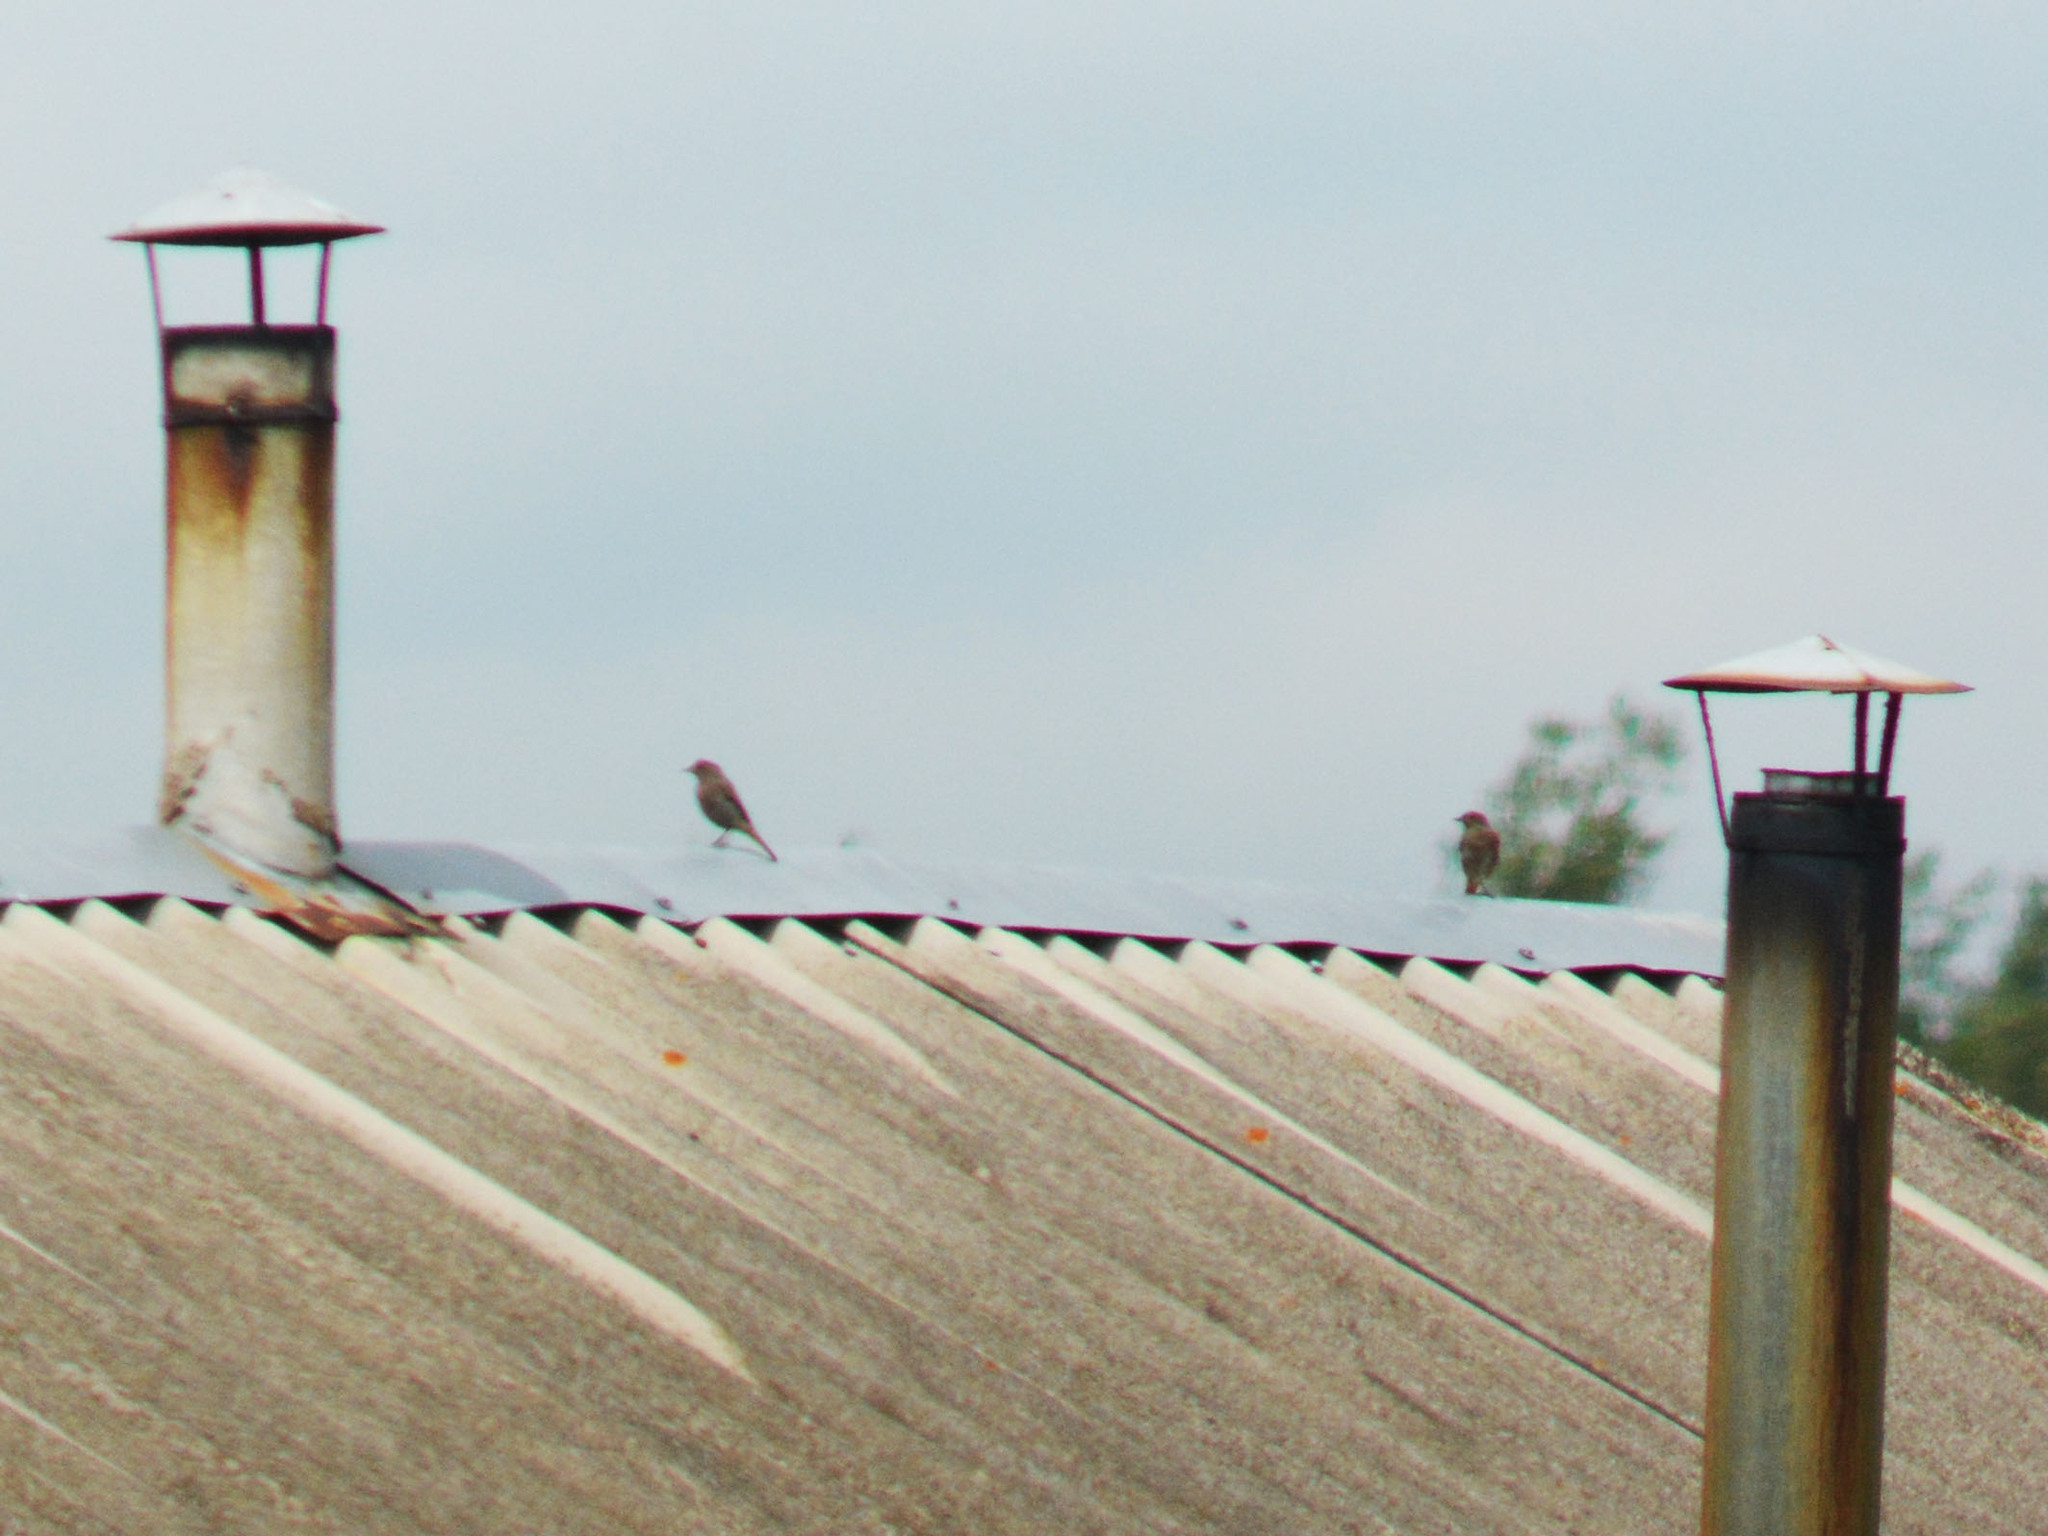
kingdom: Animalia
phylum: Chordata
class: Aves
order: Passeriformes
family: Muscicapidae
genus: Phoenicurus
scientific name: Phoenicurus ochruros
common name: Black redstart
